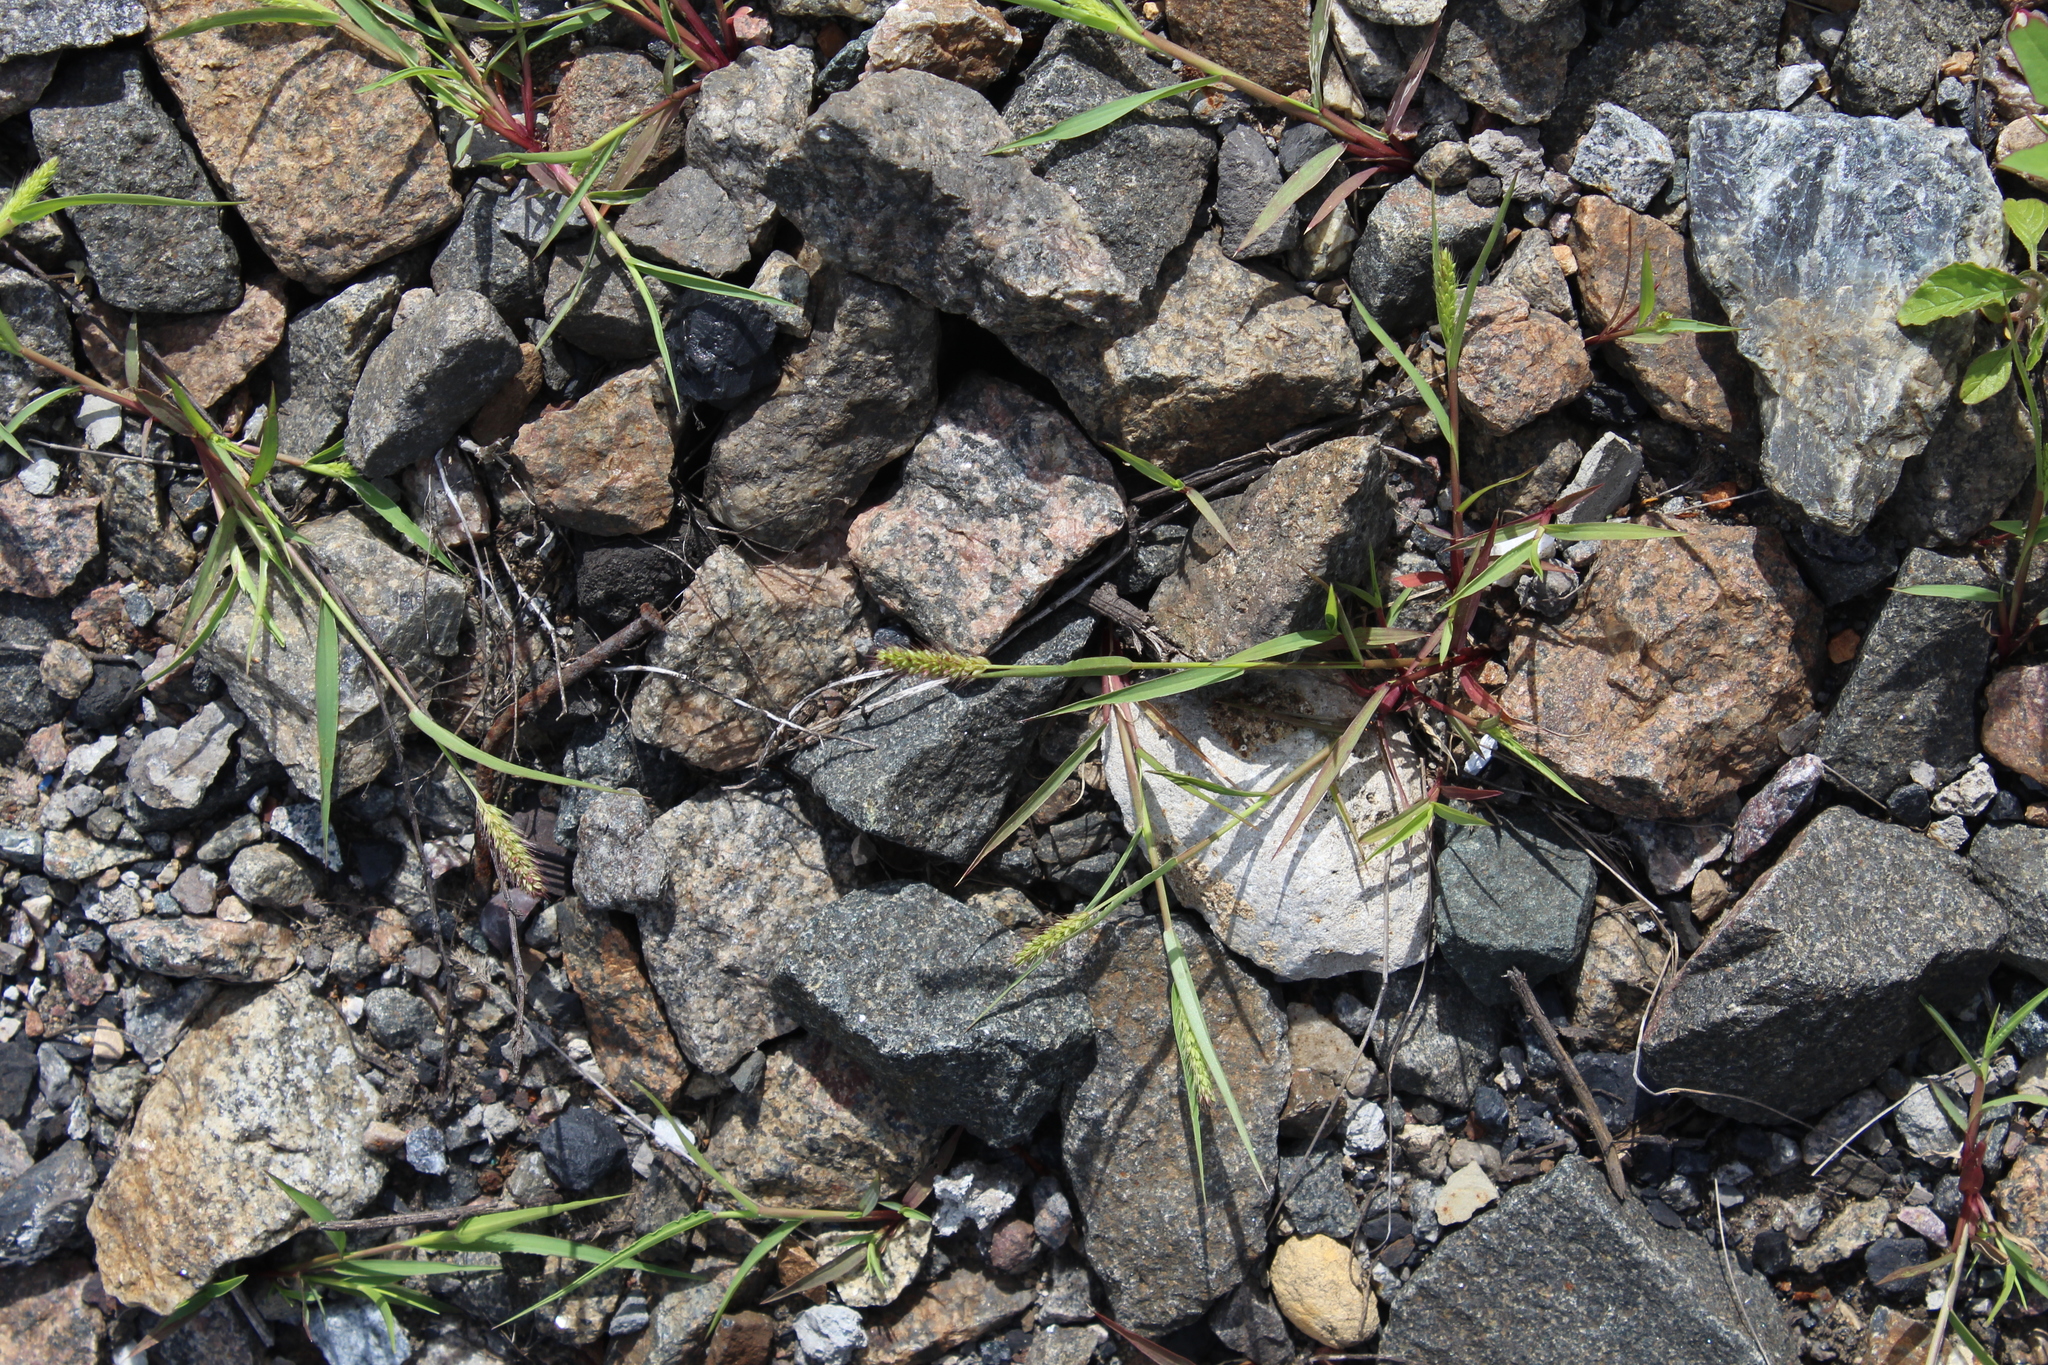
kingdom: Plantae
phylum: Tracheophyta
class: Liliopsida
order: Poales
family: Poaceae
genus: Setaria
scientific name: Setaria viridis
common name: Green bristlegrass
